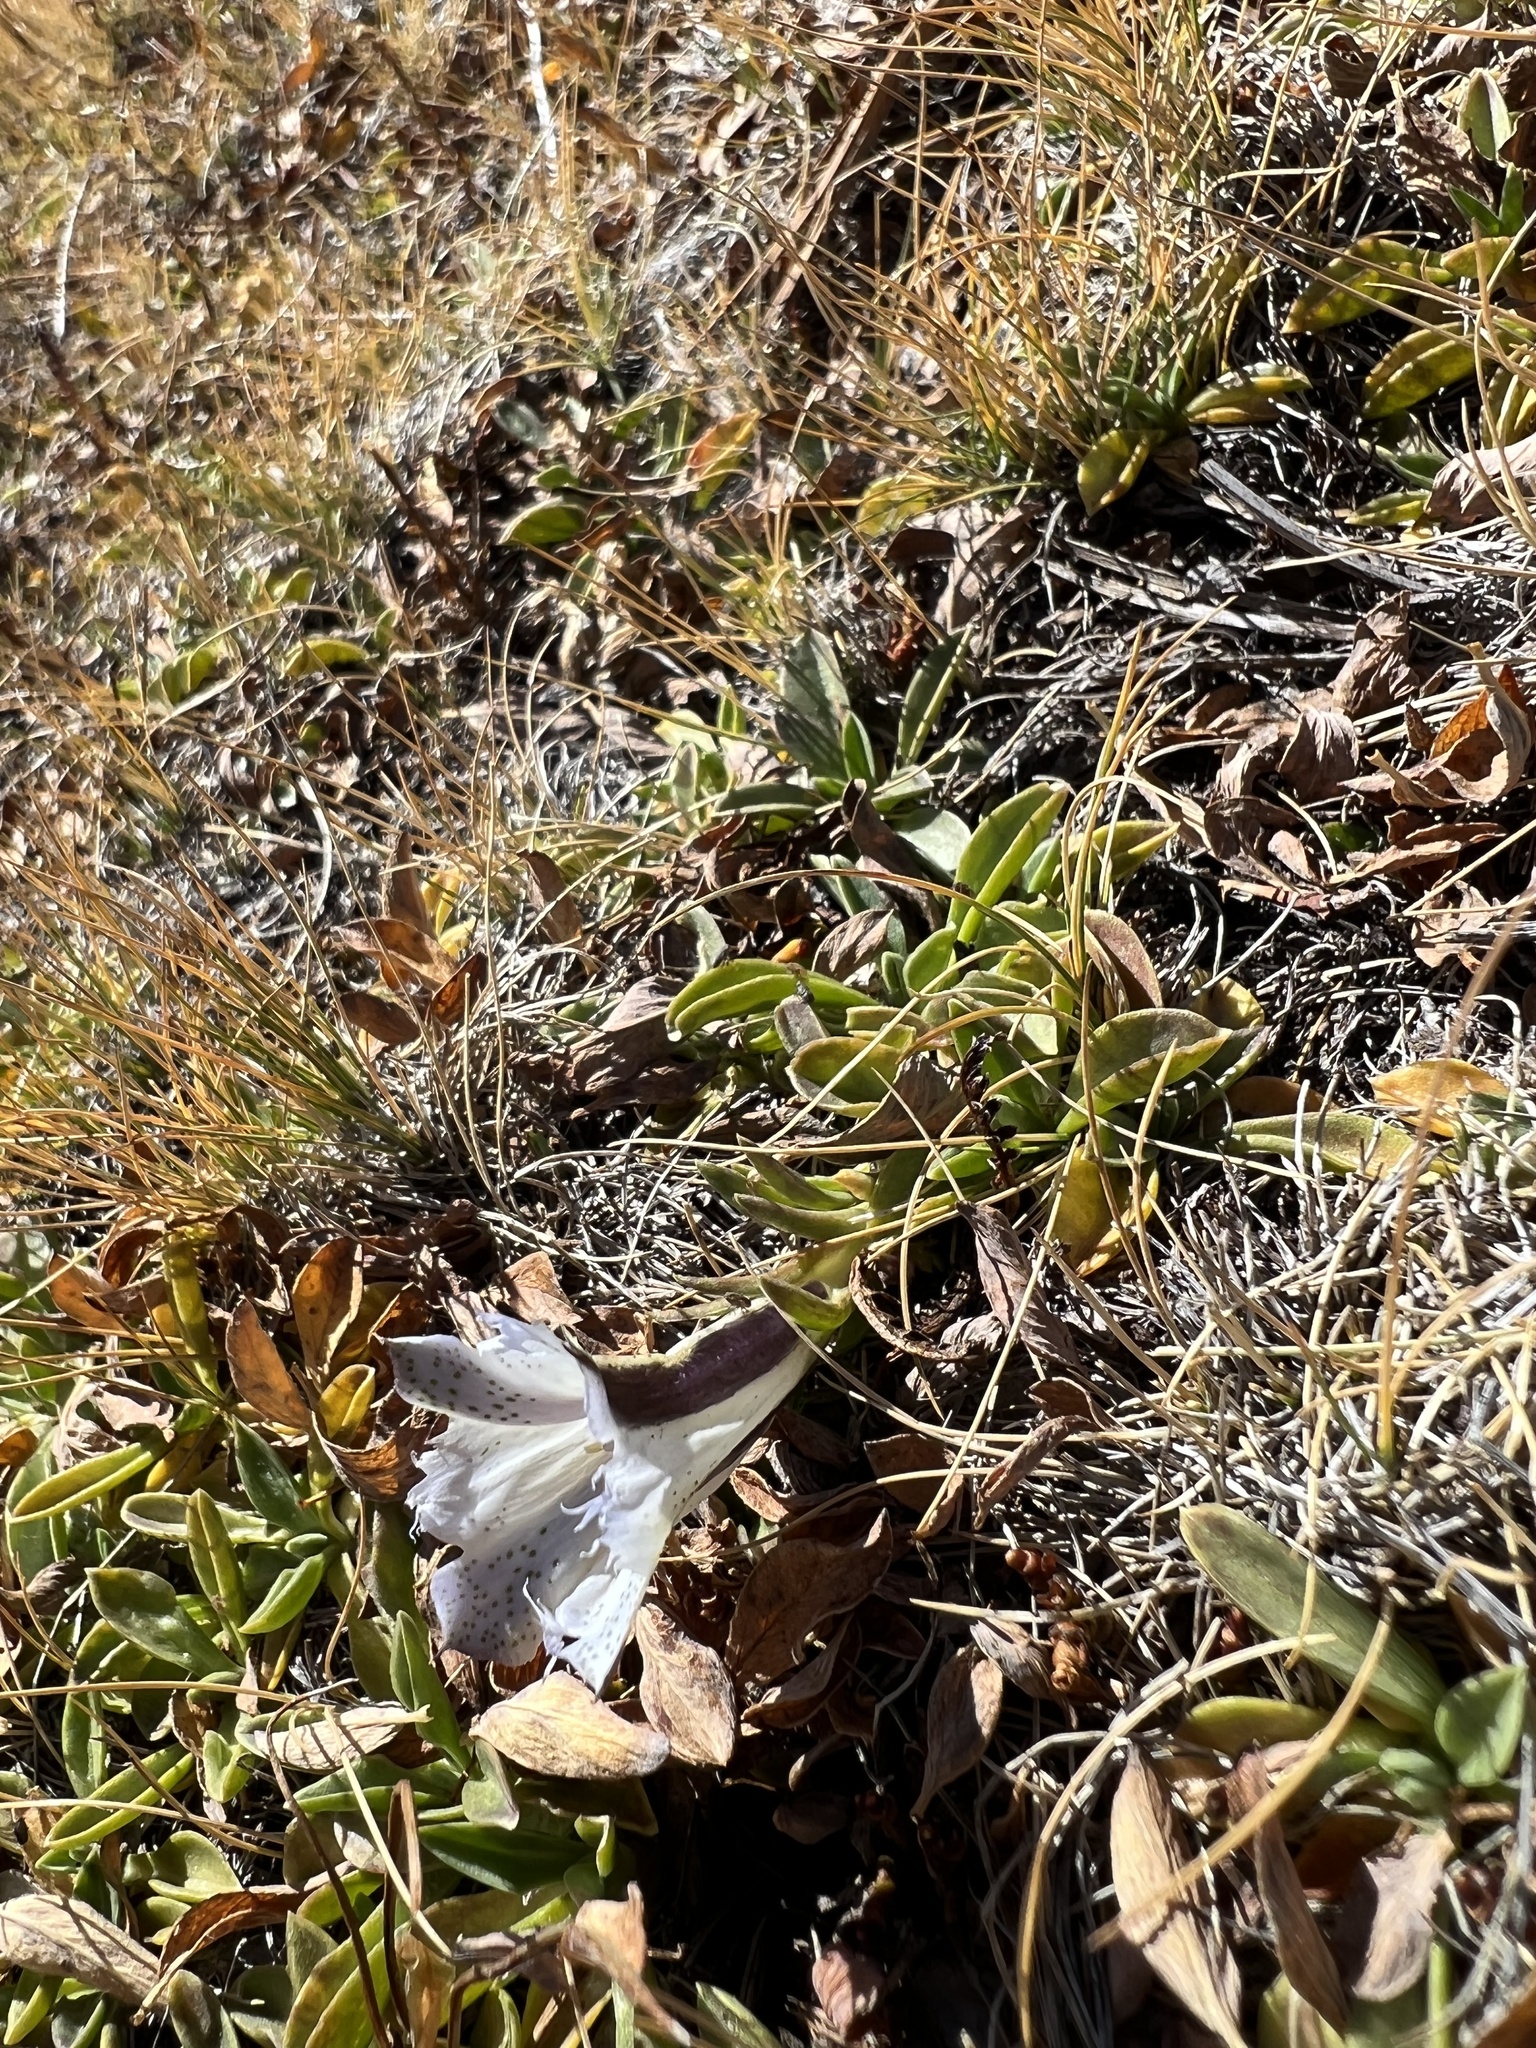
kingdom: Plantae
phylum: Tracheophyta
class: Magnoliopsida
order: Gentianales
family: Gentianaceae
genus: Gentiana
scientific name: Gentiana newberryi
